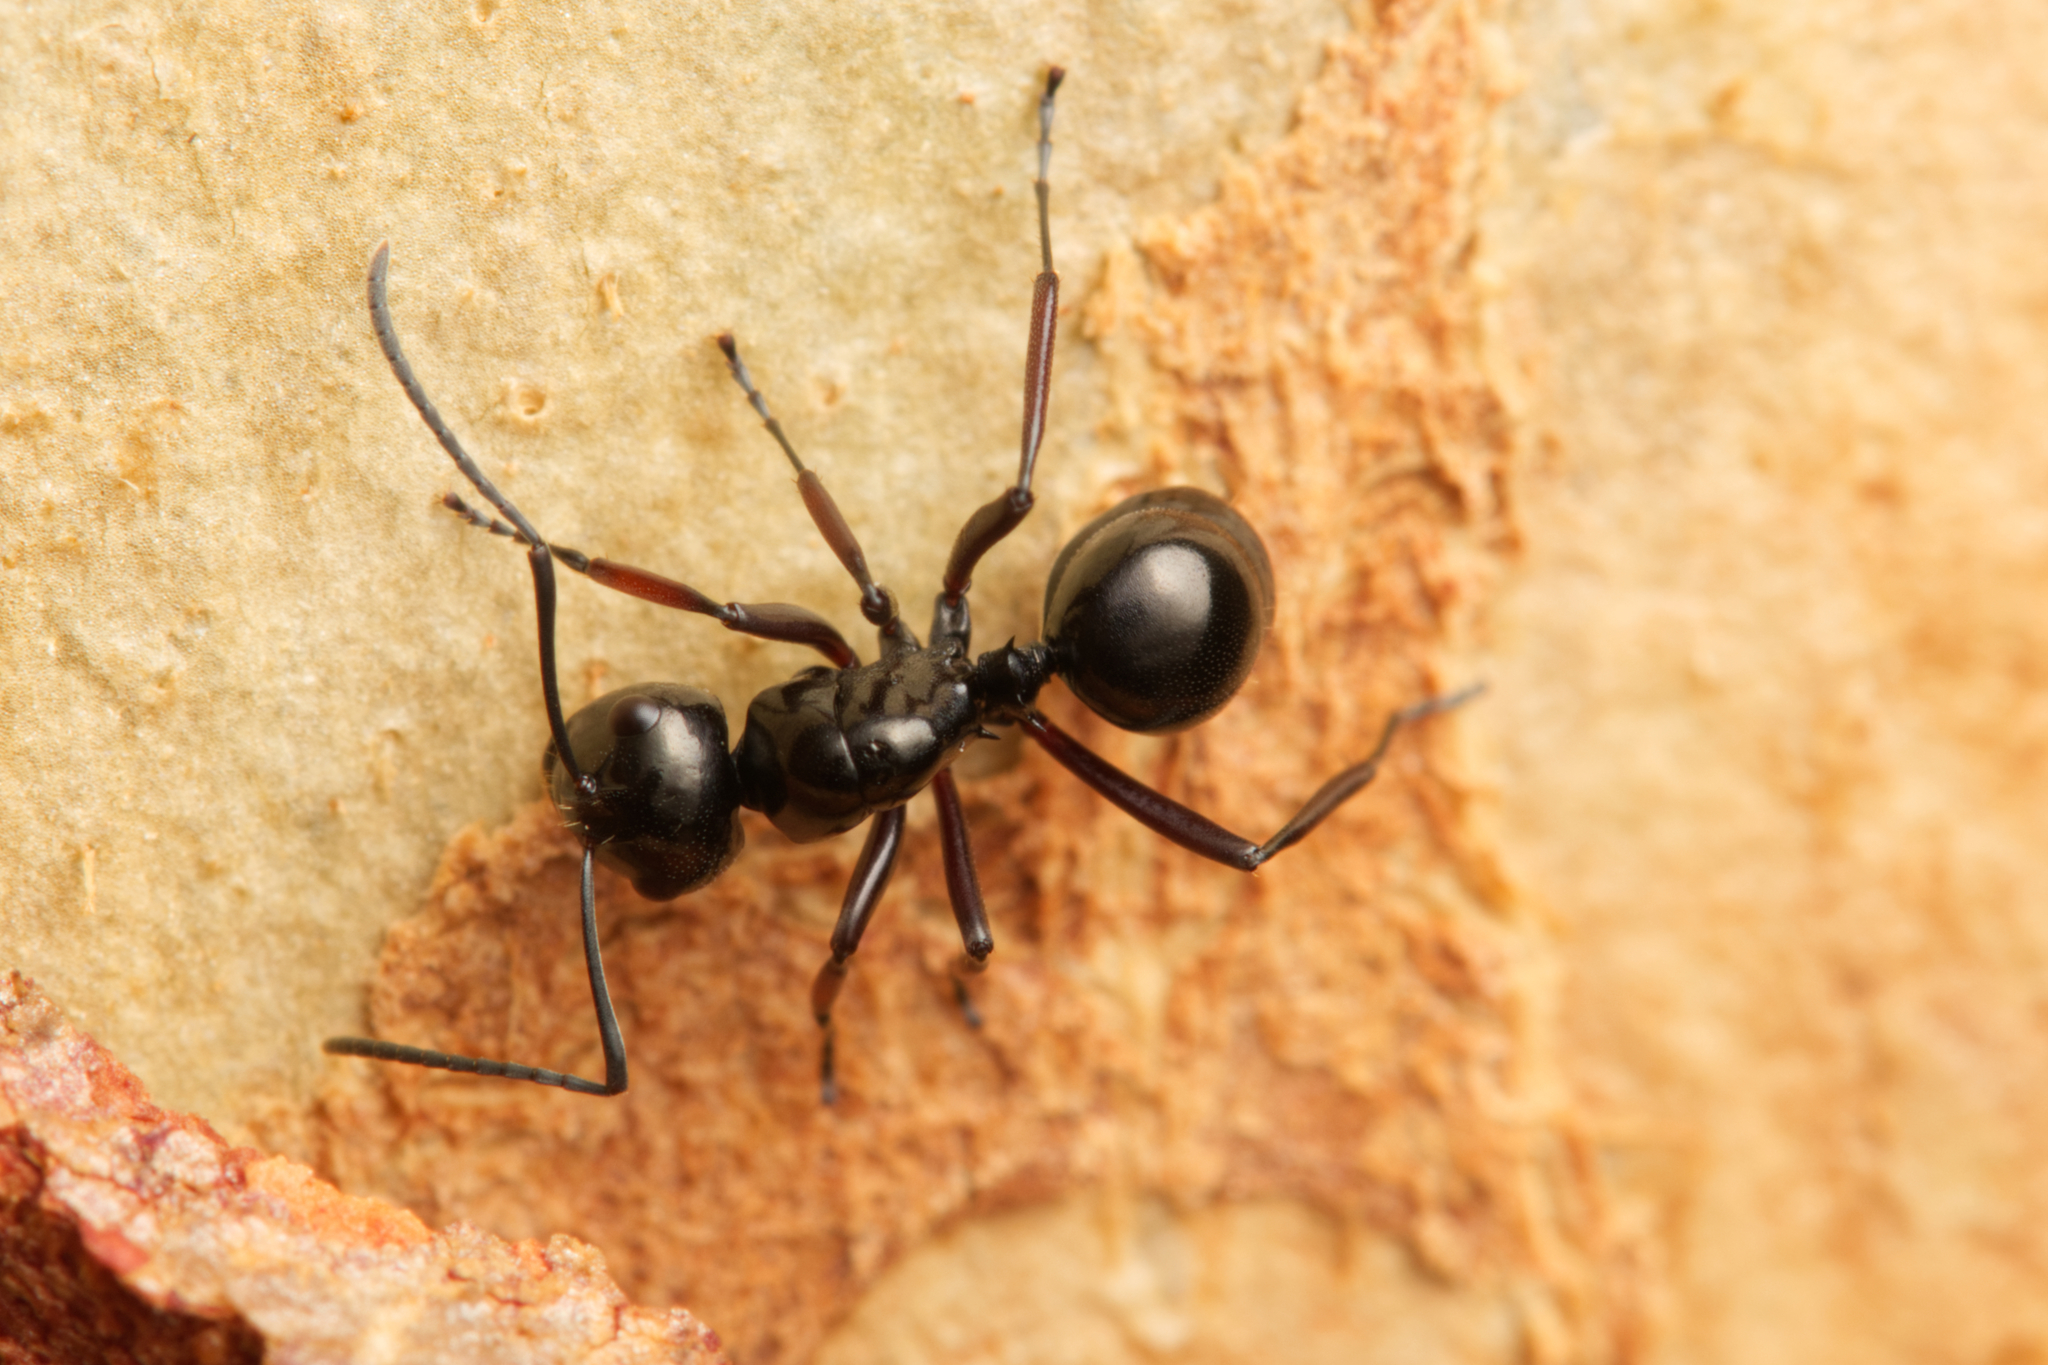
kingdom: Animalia
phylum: Arthropoda
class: Insecta
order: Hymenoptera
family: Formicidae
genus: Polyrhachis
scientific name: Polyrhachis australis
